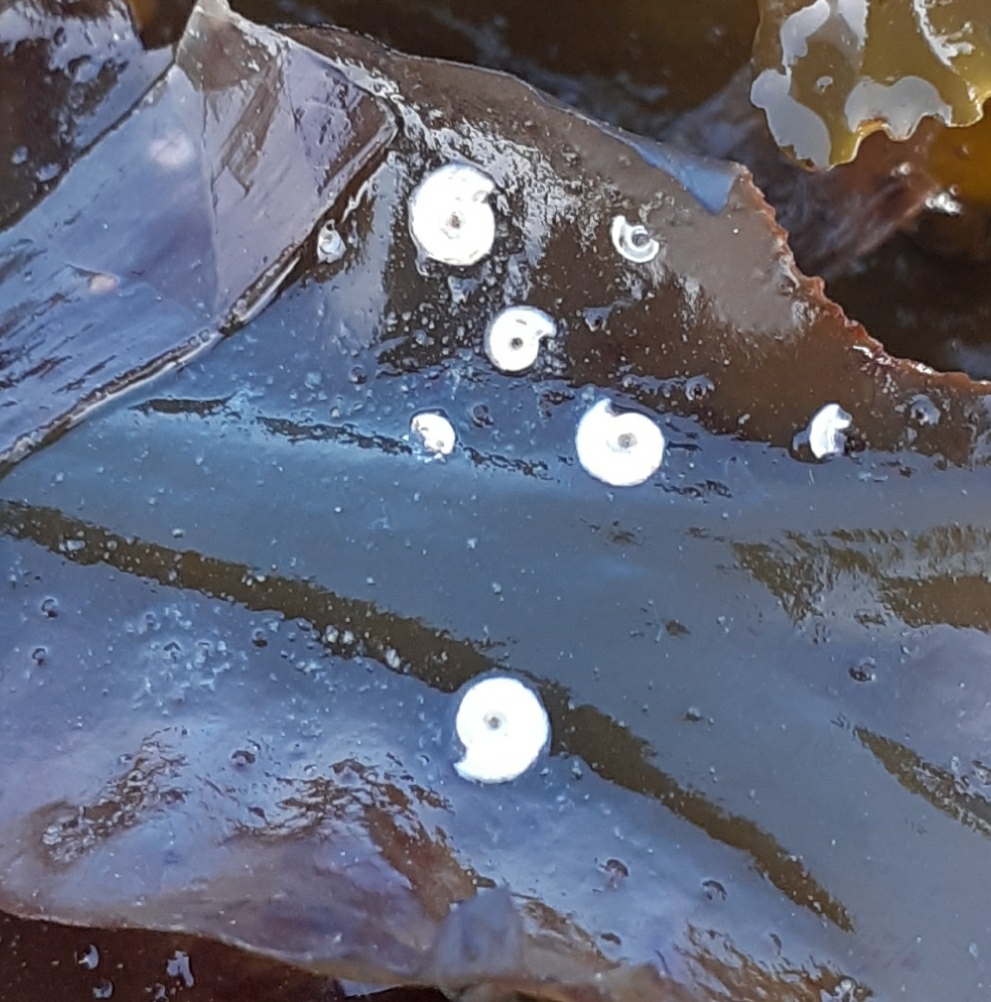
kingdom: Animalia
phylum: Annelida
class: Polychaeta
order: Sabellida
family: Serpulidae
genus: Spirorbis
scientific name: Spirorbis spirorbis
